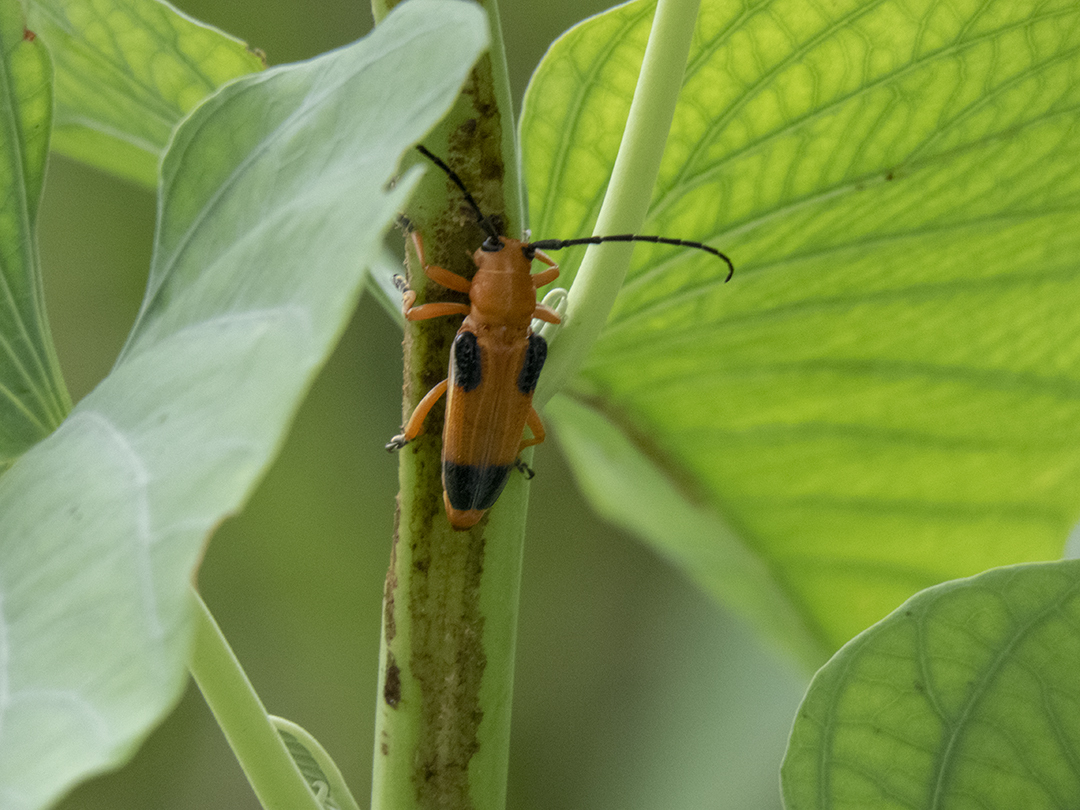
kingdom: Animalia
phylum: Arthropoda
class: Insecta
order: Coleoptera
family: Cerambycidae
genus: Stibara
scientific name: Stibara tetraspilota
